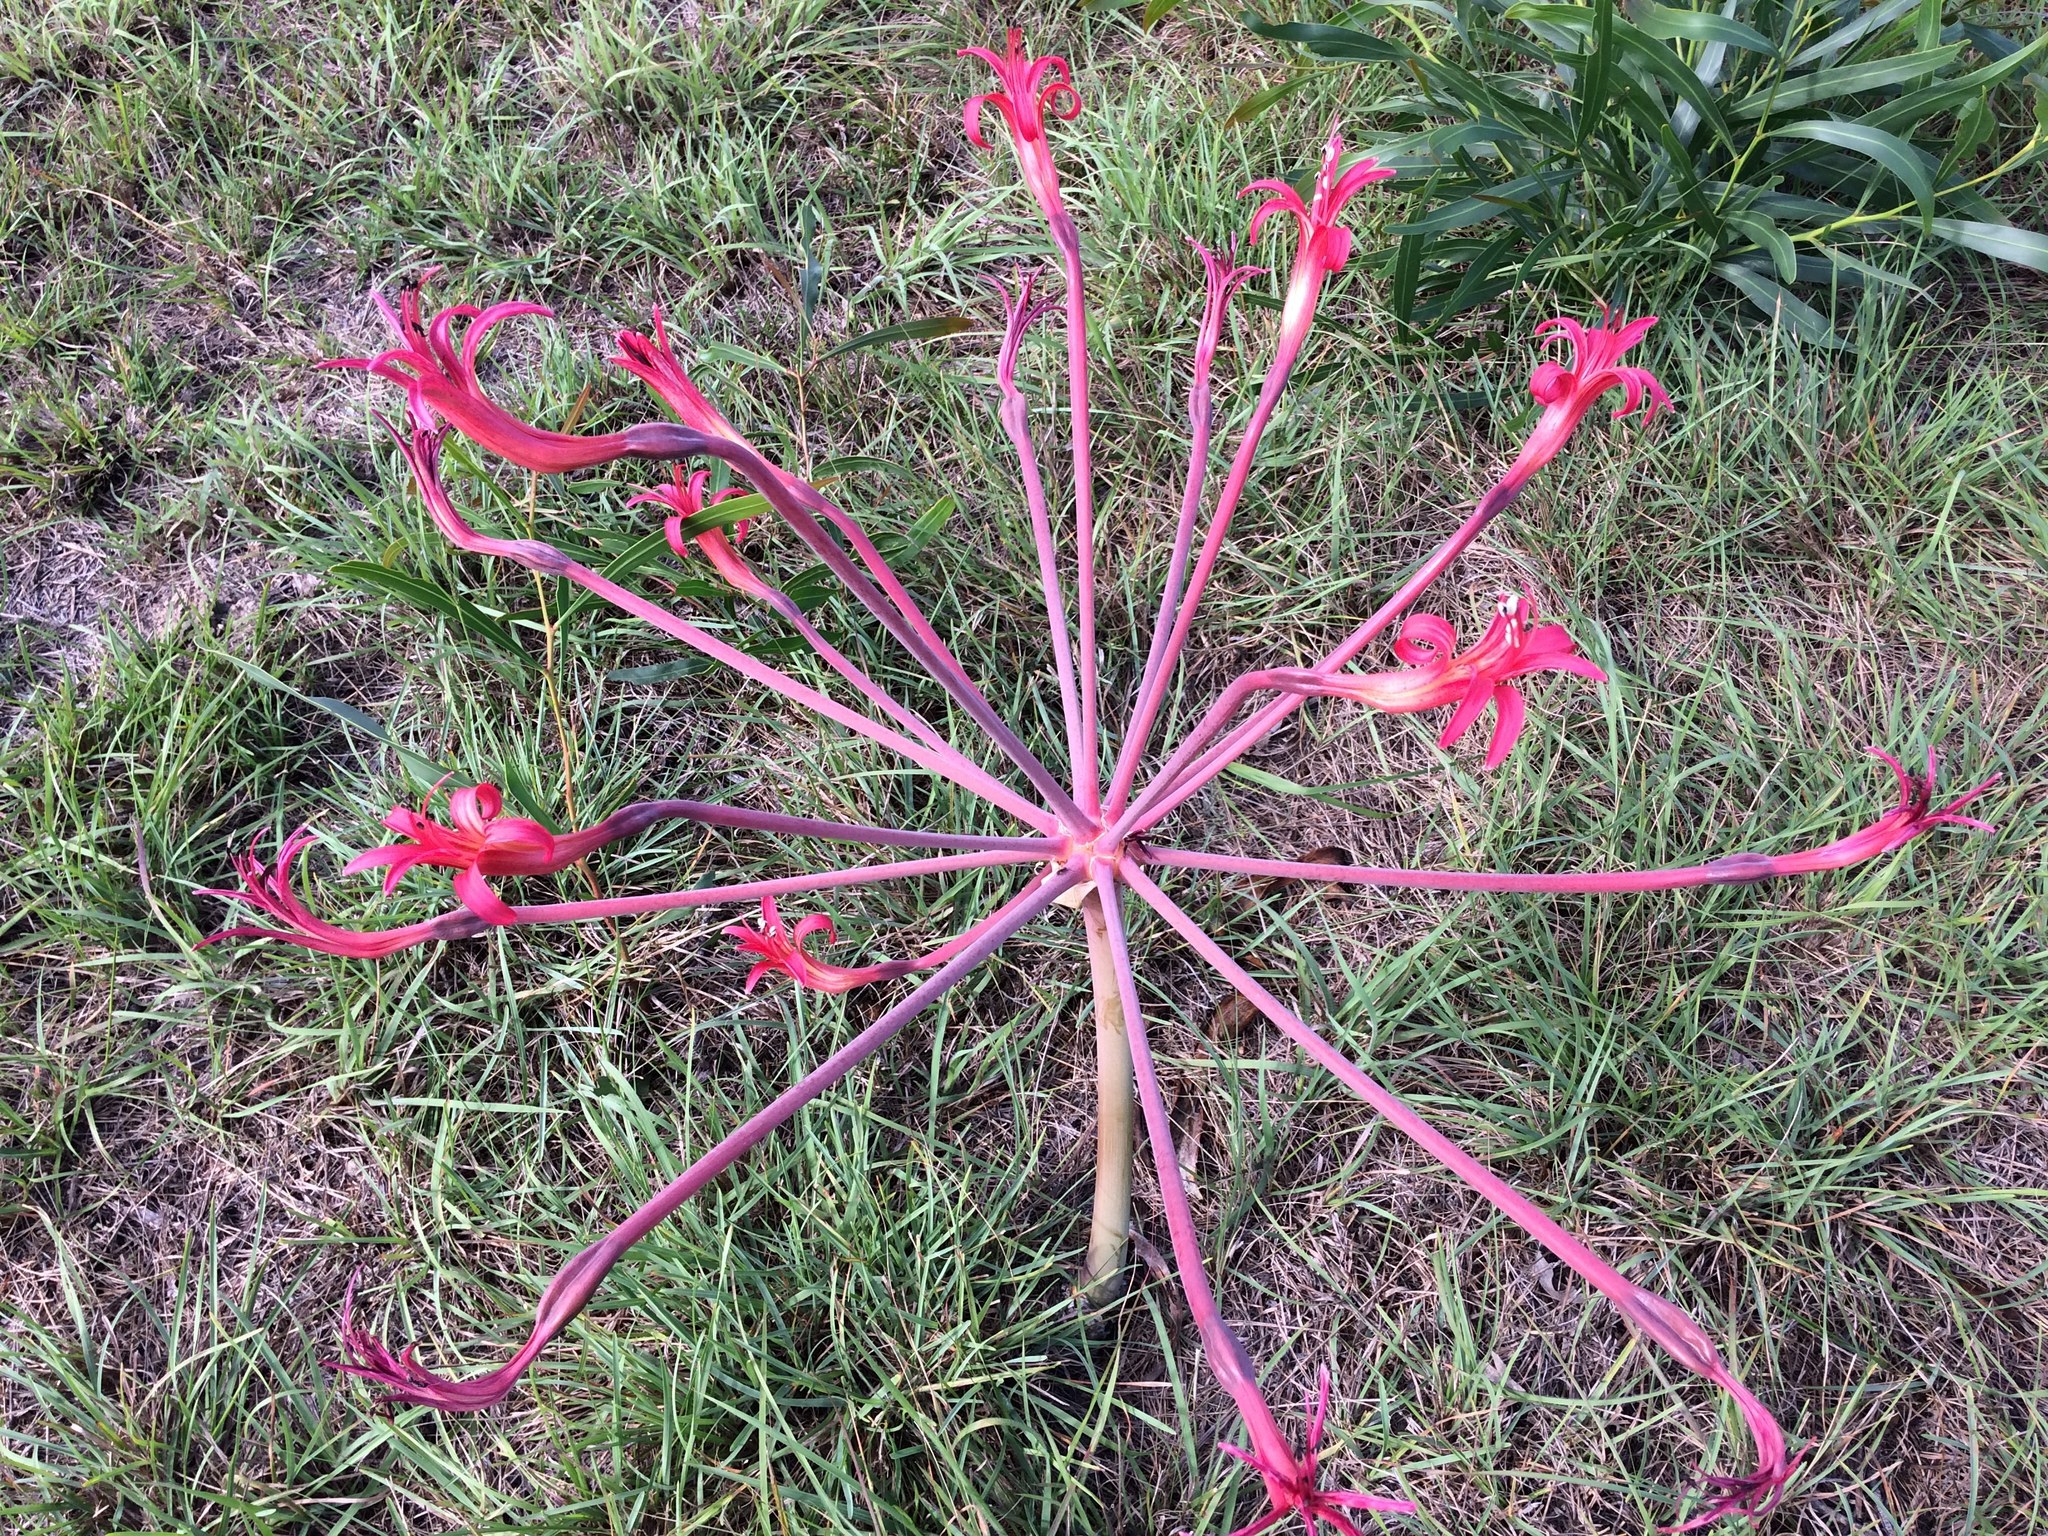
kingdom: Plantae
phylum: Tracheophyta
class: Liliopsida
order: Asparagales
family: Amaryllidaceae
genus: Brunsvigia
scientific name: Brunsvigia litoralis
